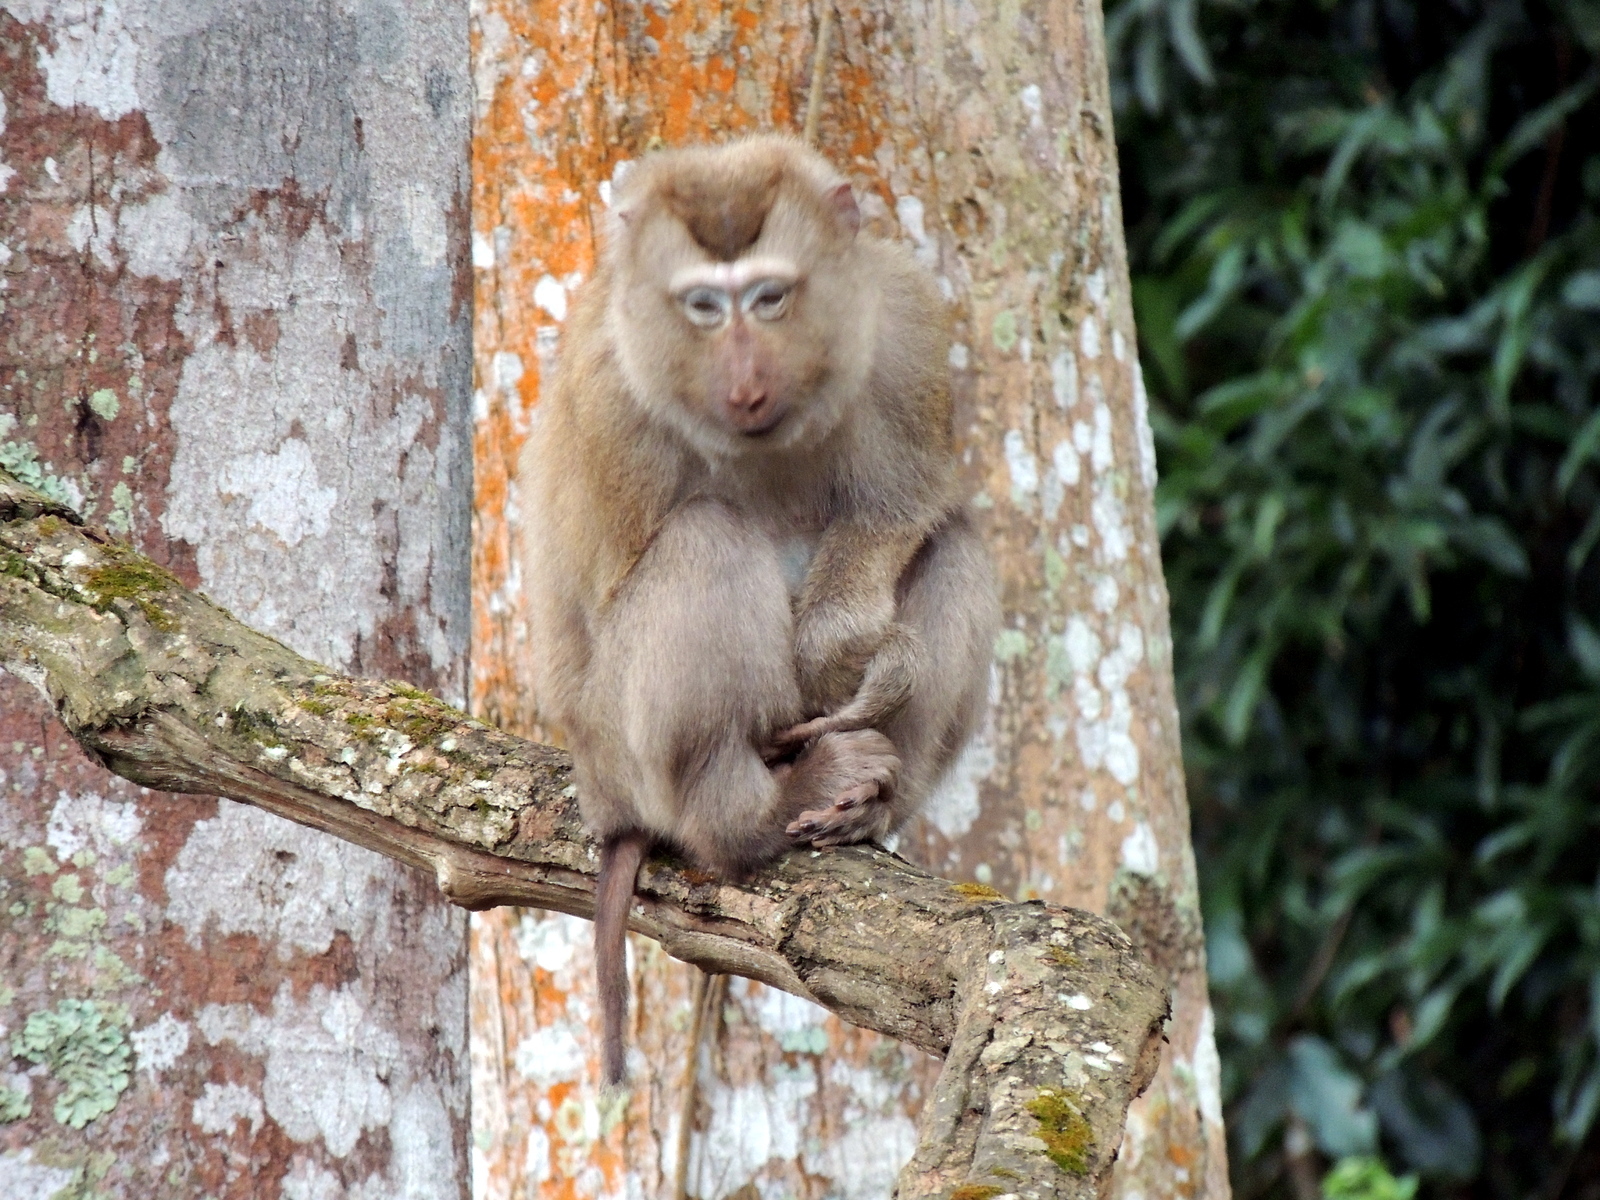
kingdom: Animalia
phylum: Chordata
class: Mammalia
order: Primates
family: Cercopithecidae
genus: Macaca
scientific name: Macaca leonina
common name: Northern pig-tailed macaque
